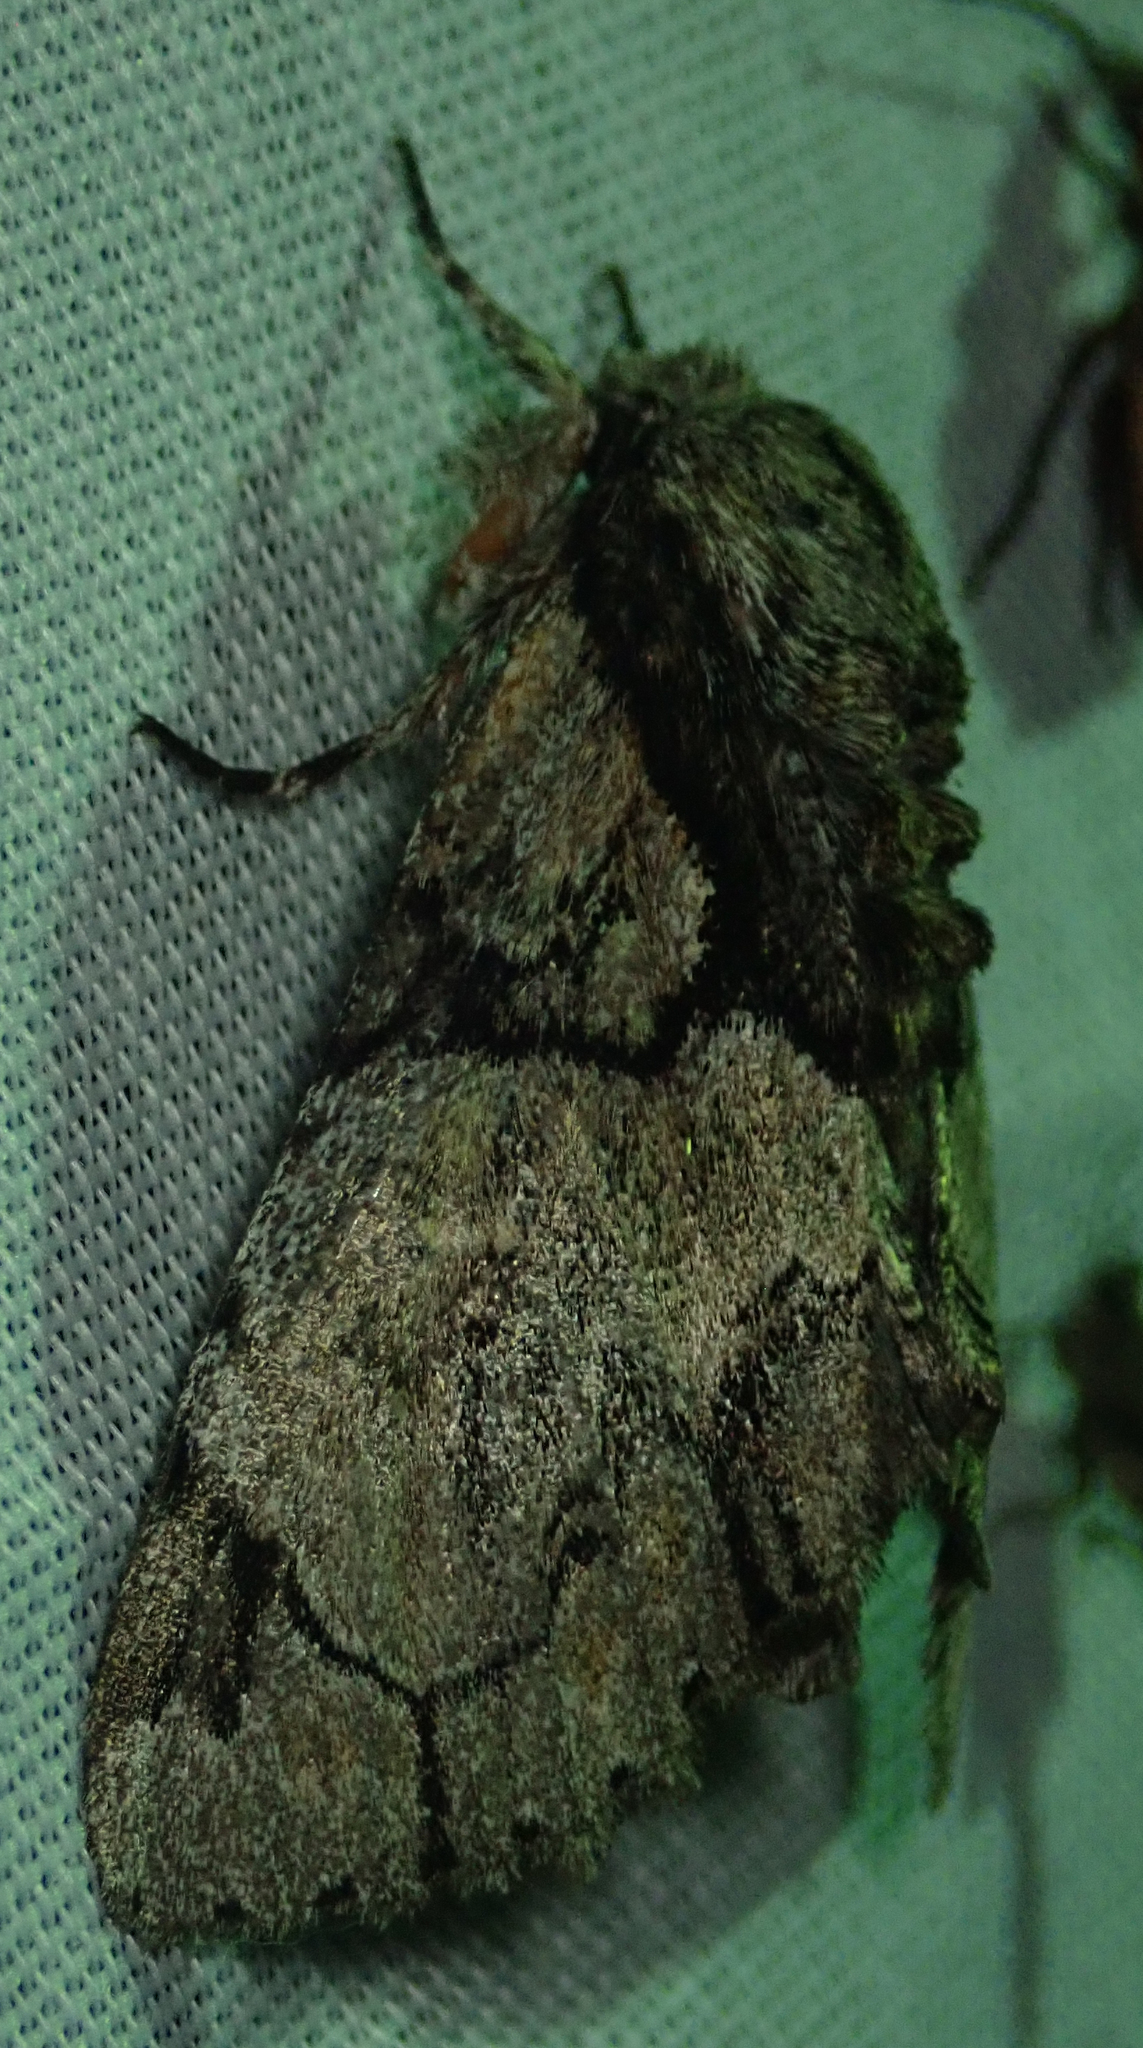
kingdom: Animalia
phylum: Arthropoda
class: Insecta
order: Lepidoptera
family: Erebidae
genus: Auchenisa
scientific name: Auchenisa berenice
